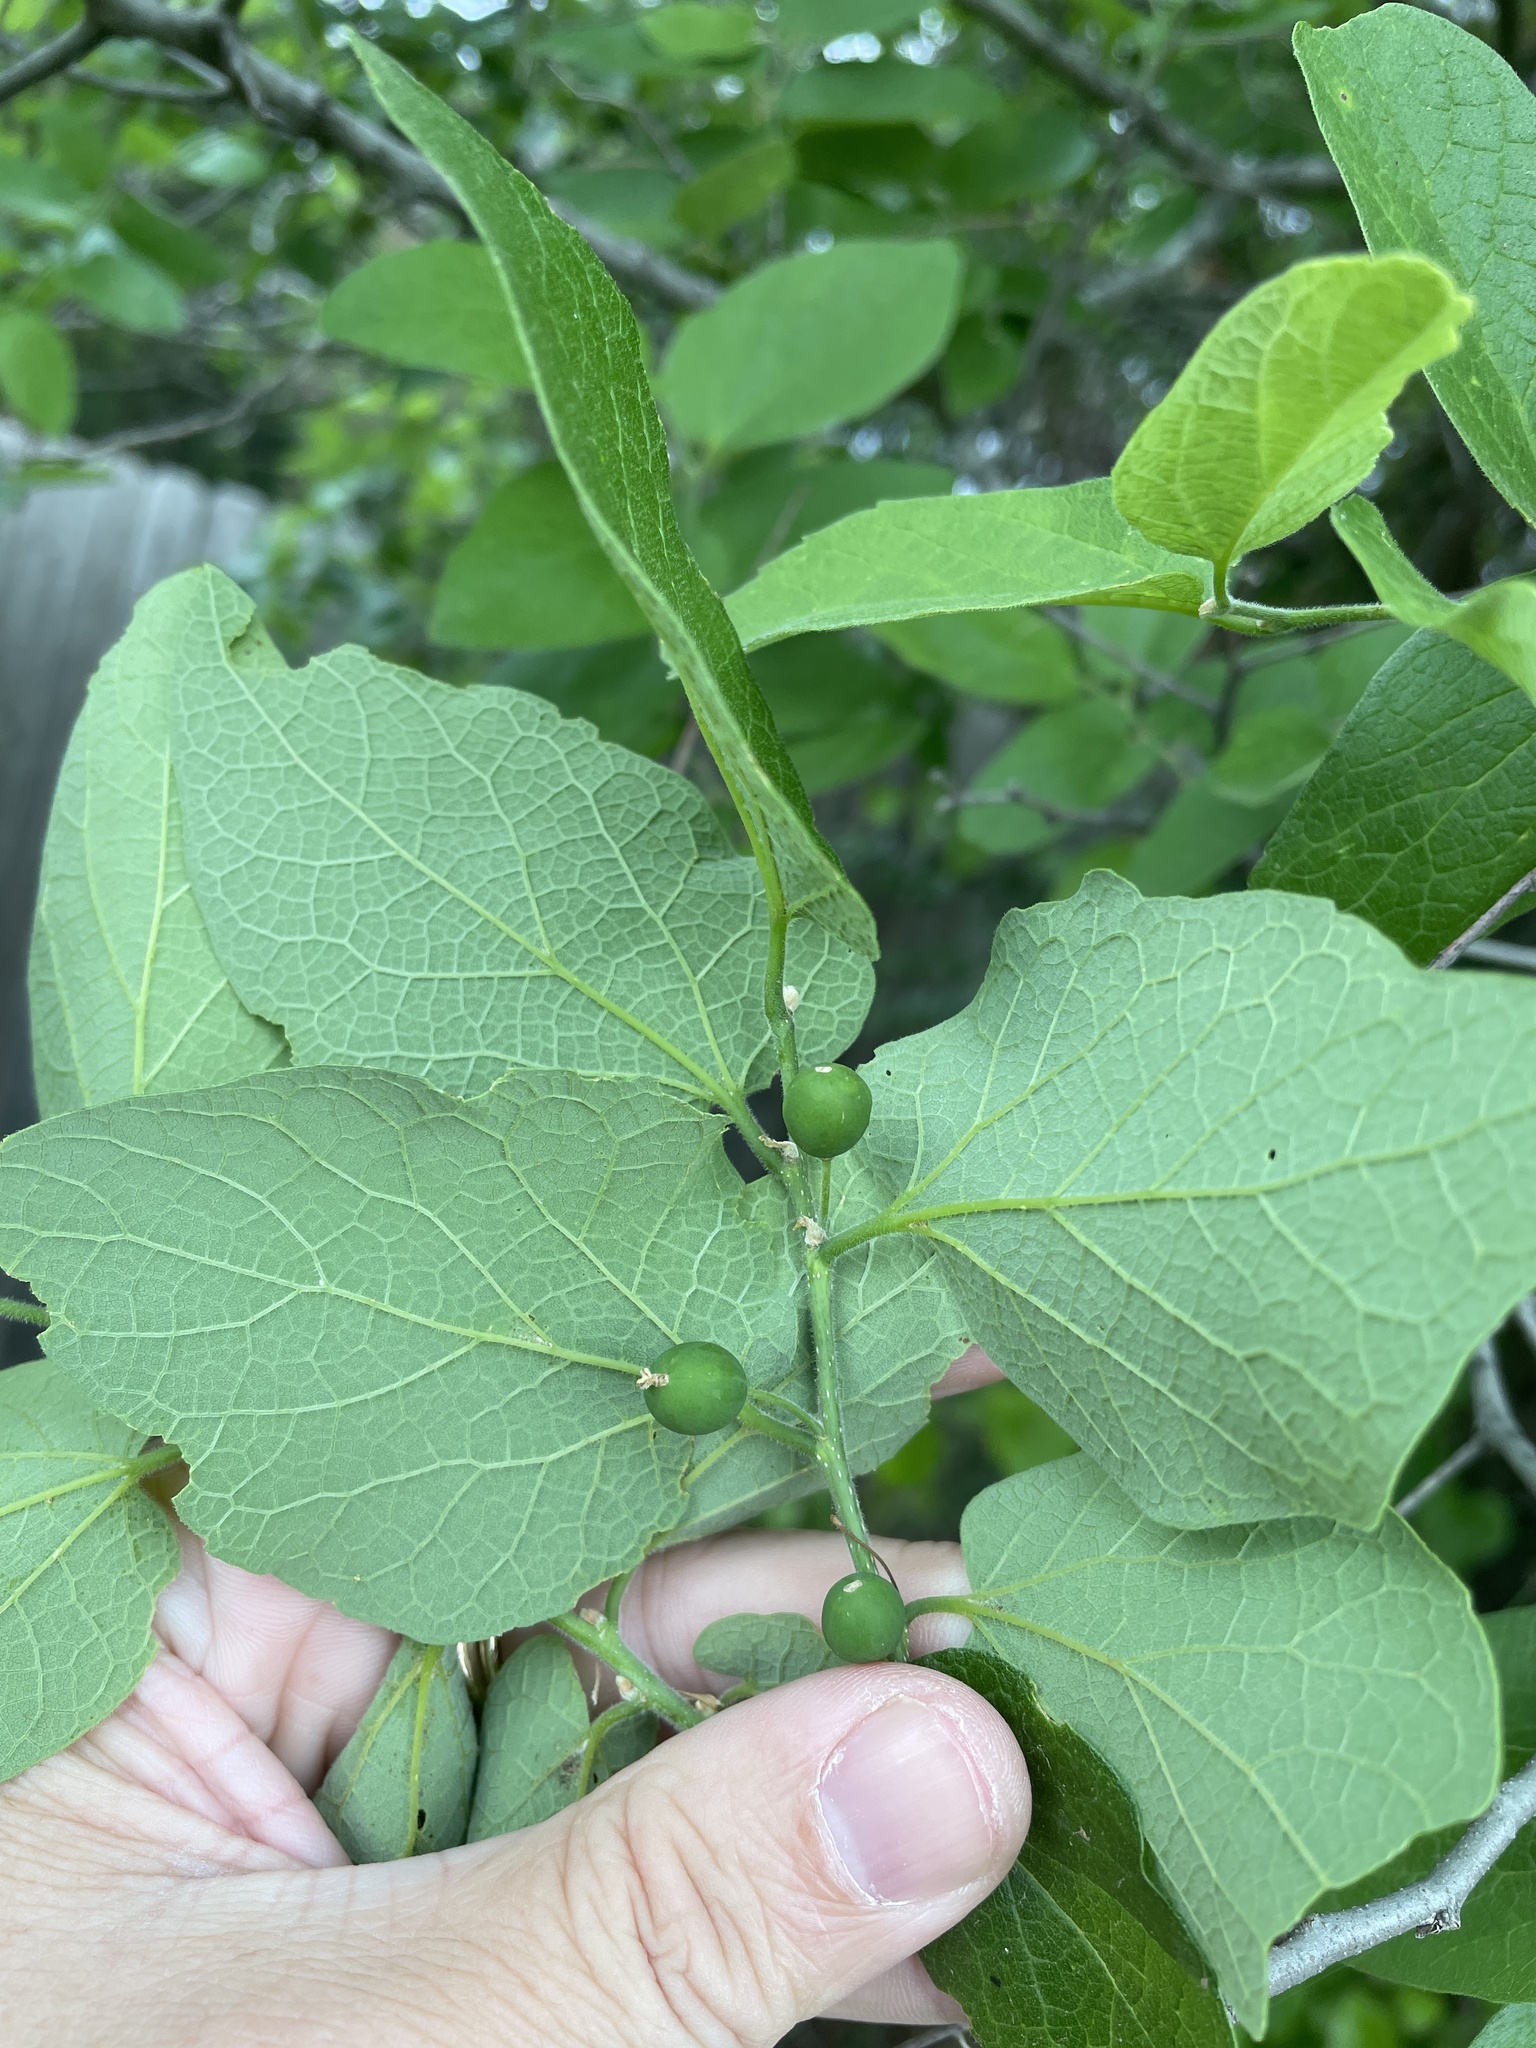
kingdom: Plantae
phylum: Tracheophyta
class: Magnoliopsida
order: Rosales
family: Cannabaceae
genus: Celtis
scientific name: Celtis reticulata
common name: Netleaf hackberry
